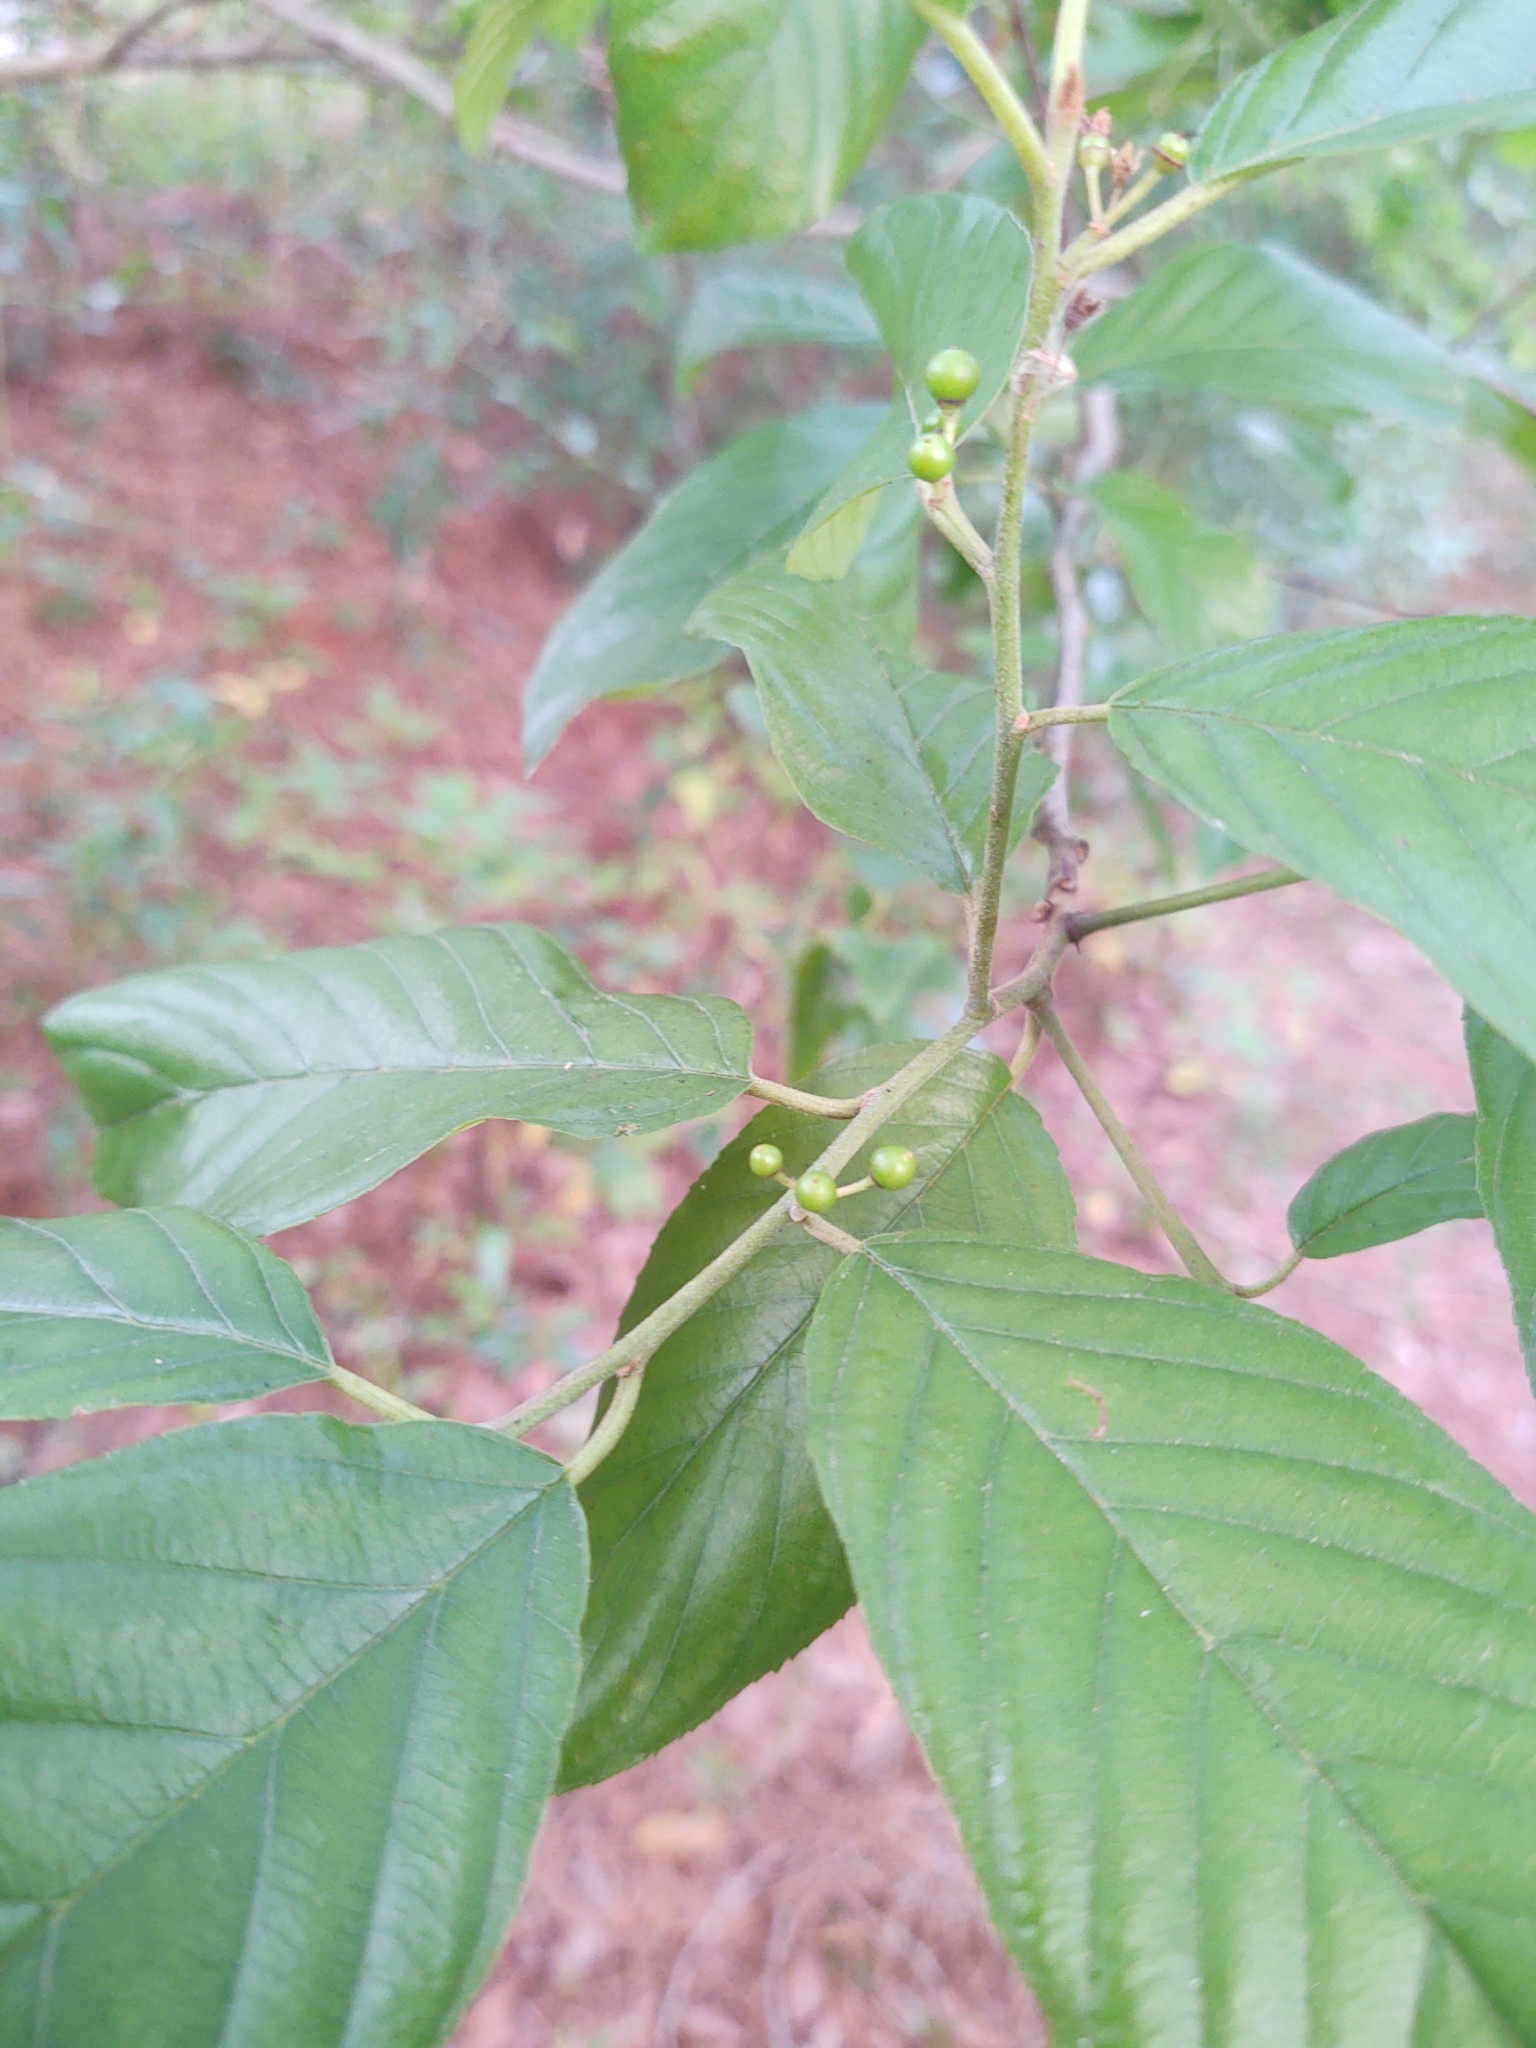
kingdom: Plantae
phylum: Tracheophyta
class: Magnoliopsida
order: Rosales
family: Rhamnaceae
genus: Frangula
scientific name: Frangula caroliniana
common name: Carolina buckthorn
